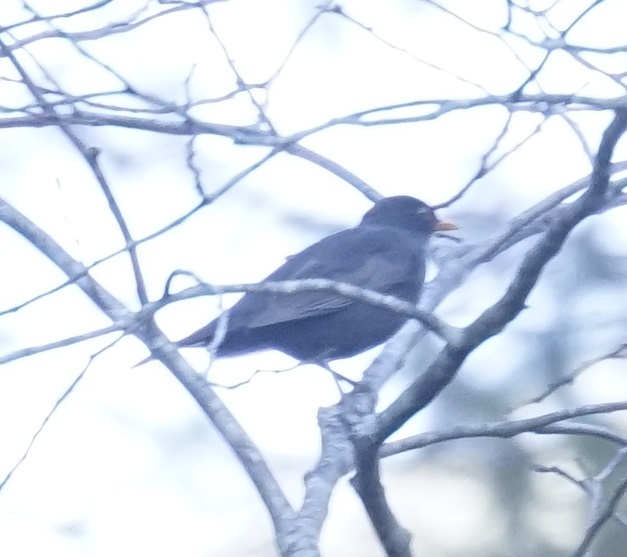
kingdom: Animalia
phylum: Chordata
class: Aves
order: Passeriformes
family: Turdidae
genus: Turdus
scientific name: Turdus merula
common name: Common blackbird
